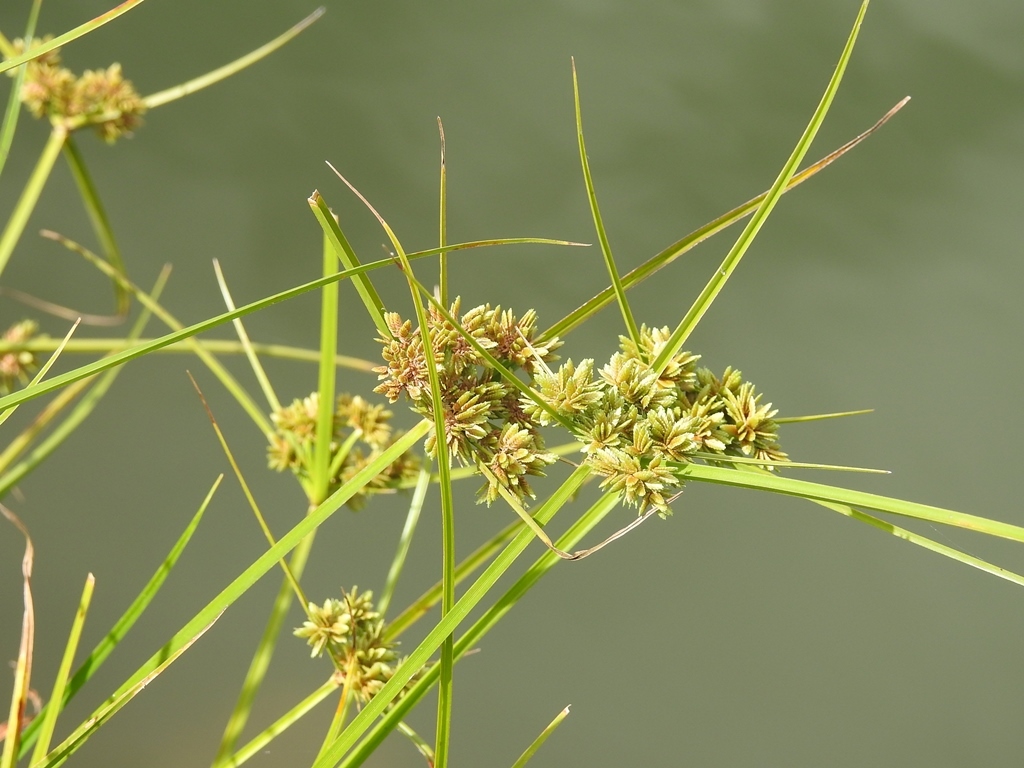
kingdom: Plantae
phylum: Tracheophyta
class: Liliopsida
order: Poales
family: Cyperaceae
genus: Cyperus
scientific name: Cyperus virens
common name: Green flatsedge
